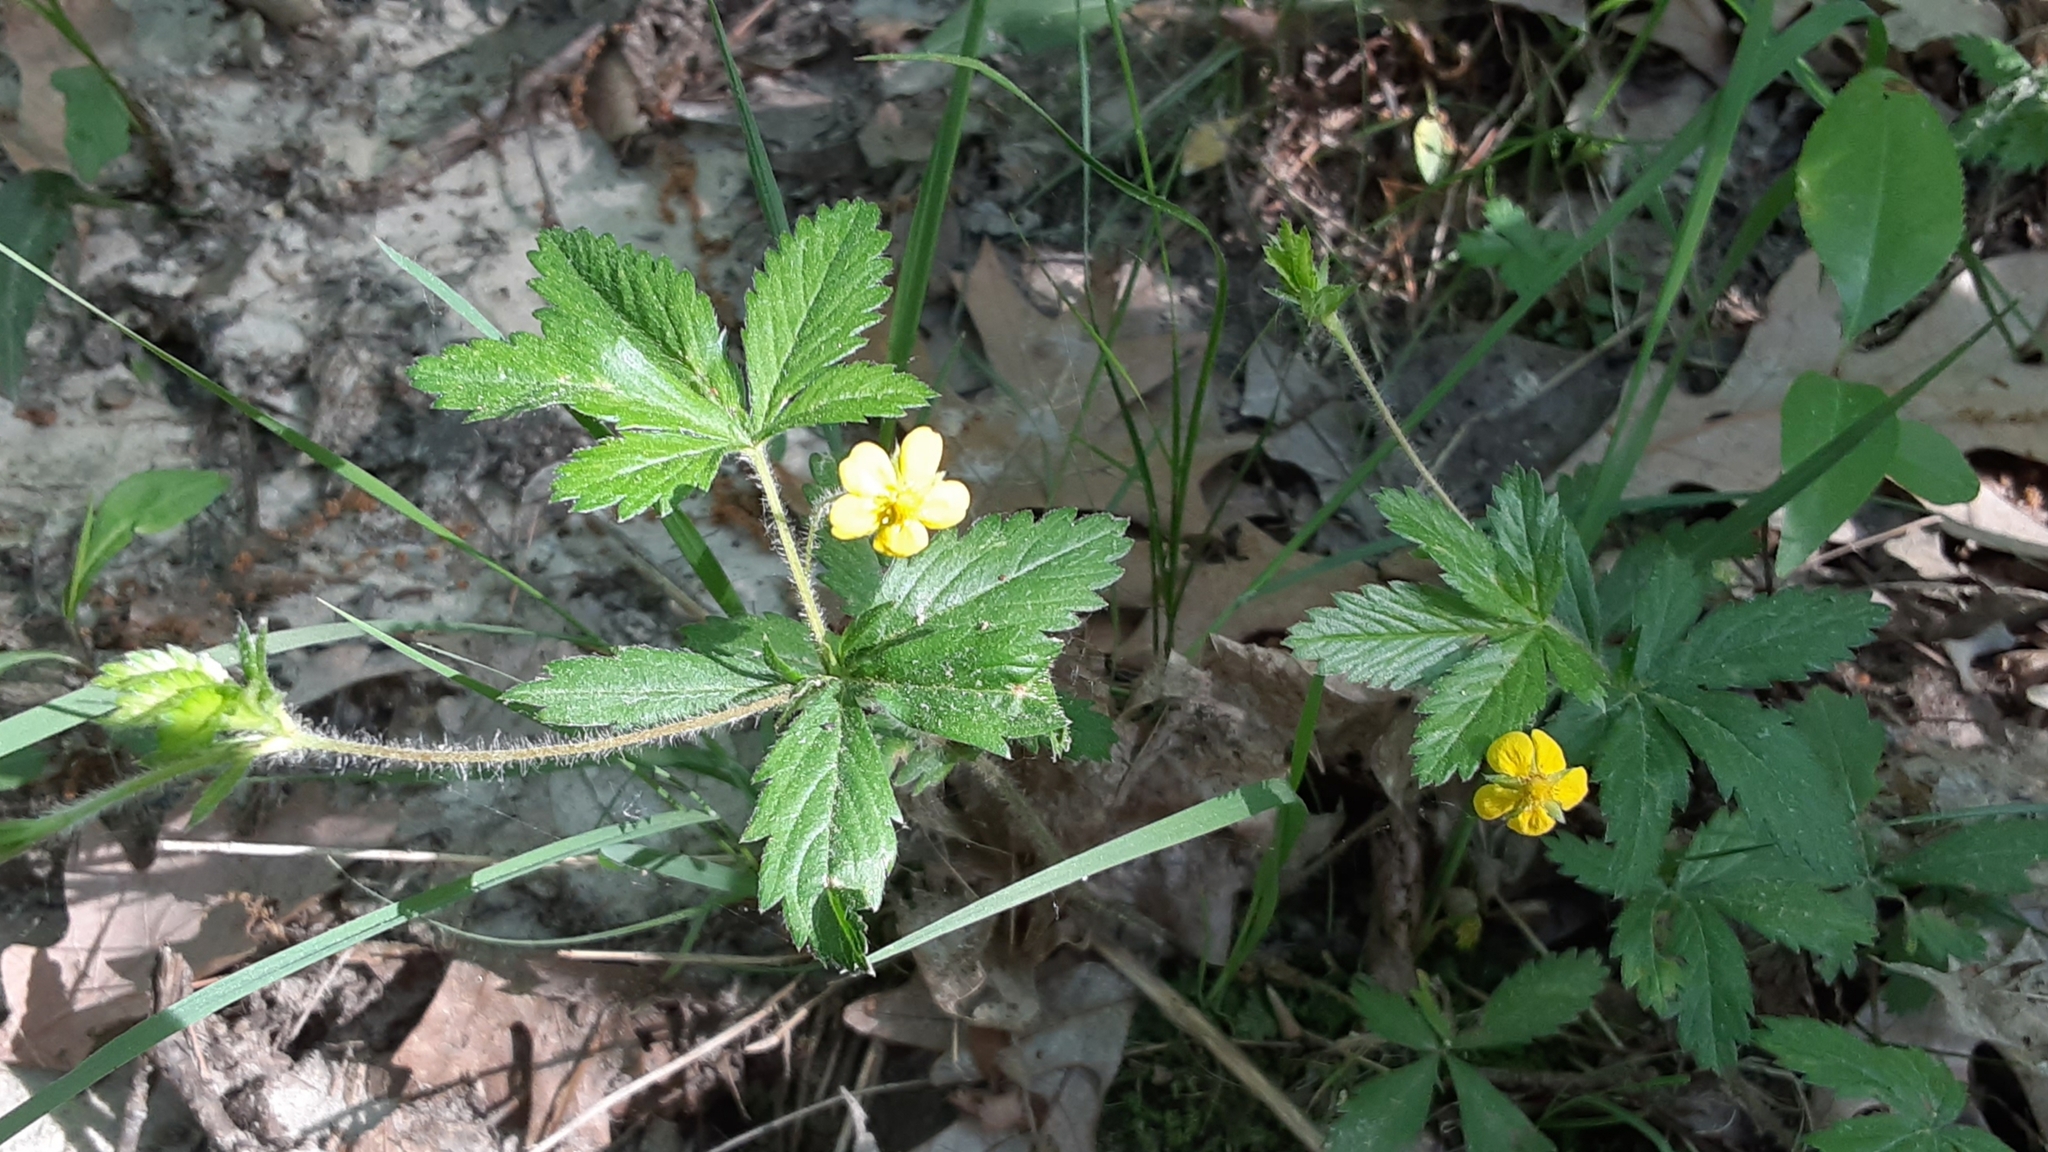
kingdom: Plantae
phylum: Tracheophyta
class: Magnoliopsida
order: Rosales
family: Rosaceae
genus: Potentilla
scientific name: Potentilla simplex
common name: Old field cinquefoil
